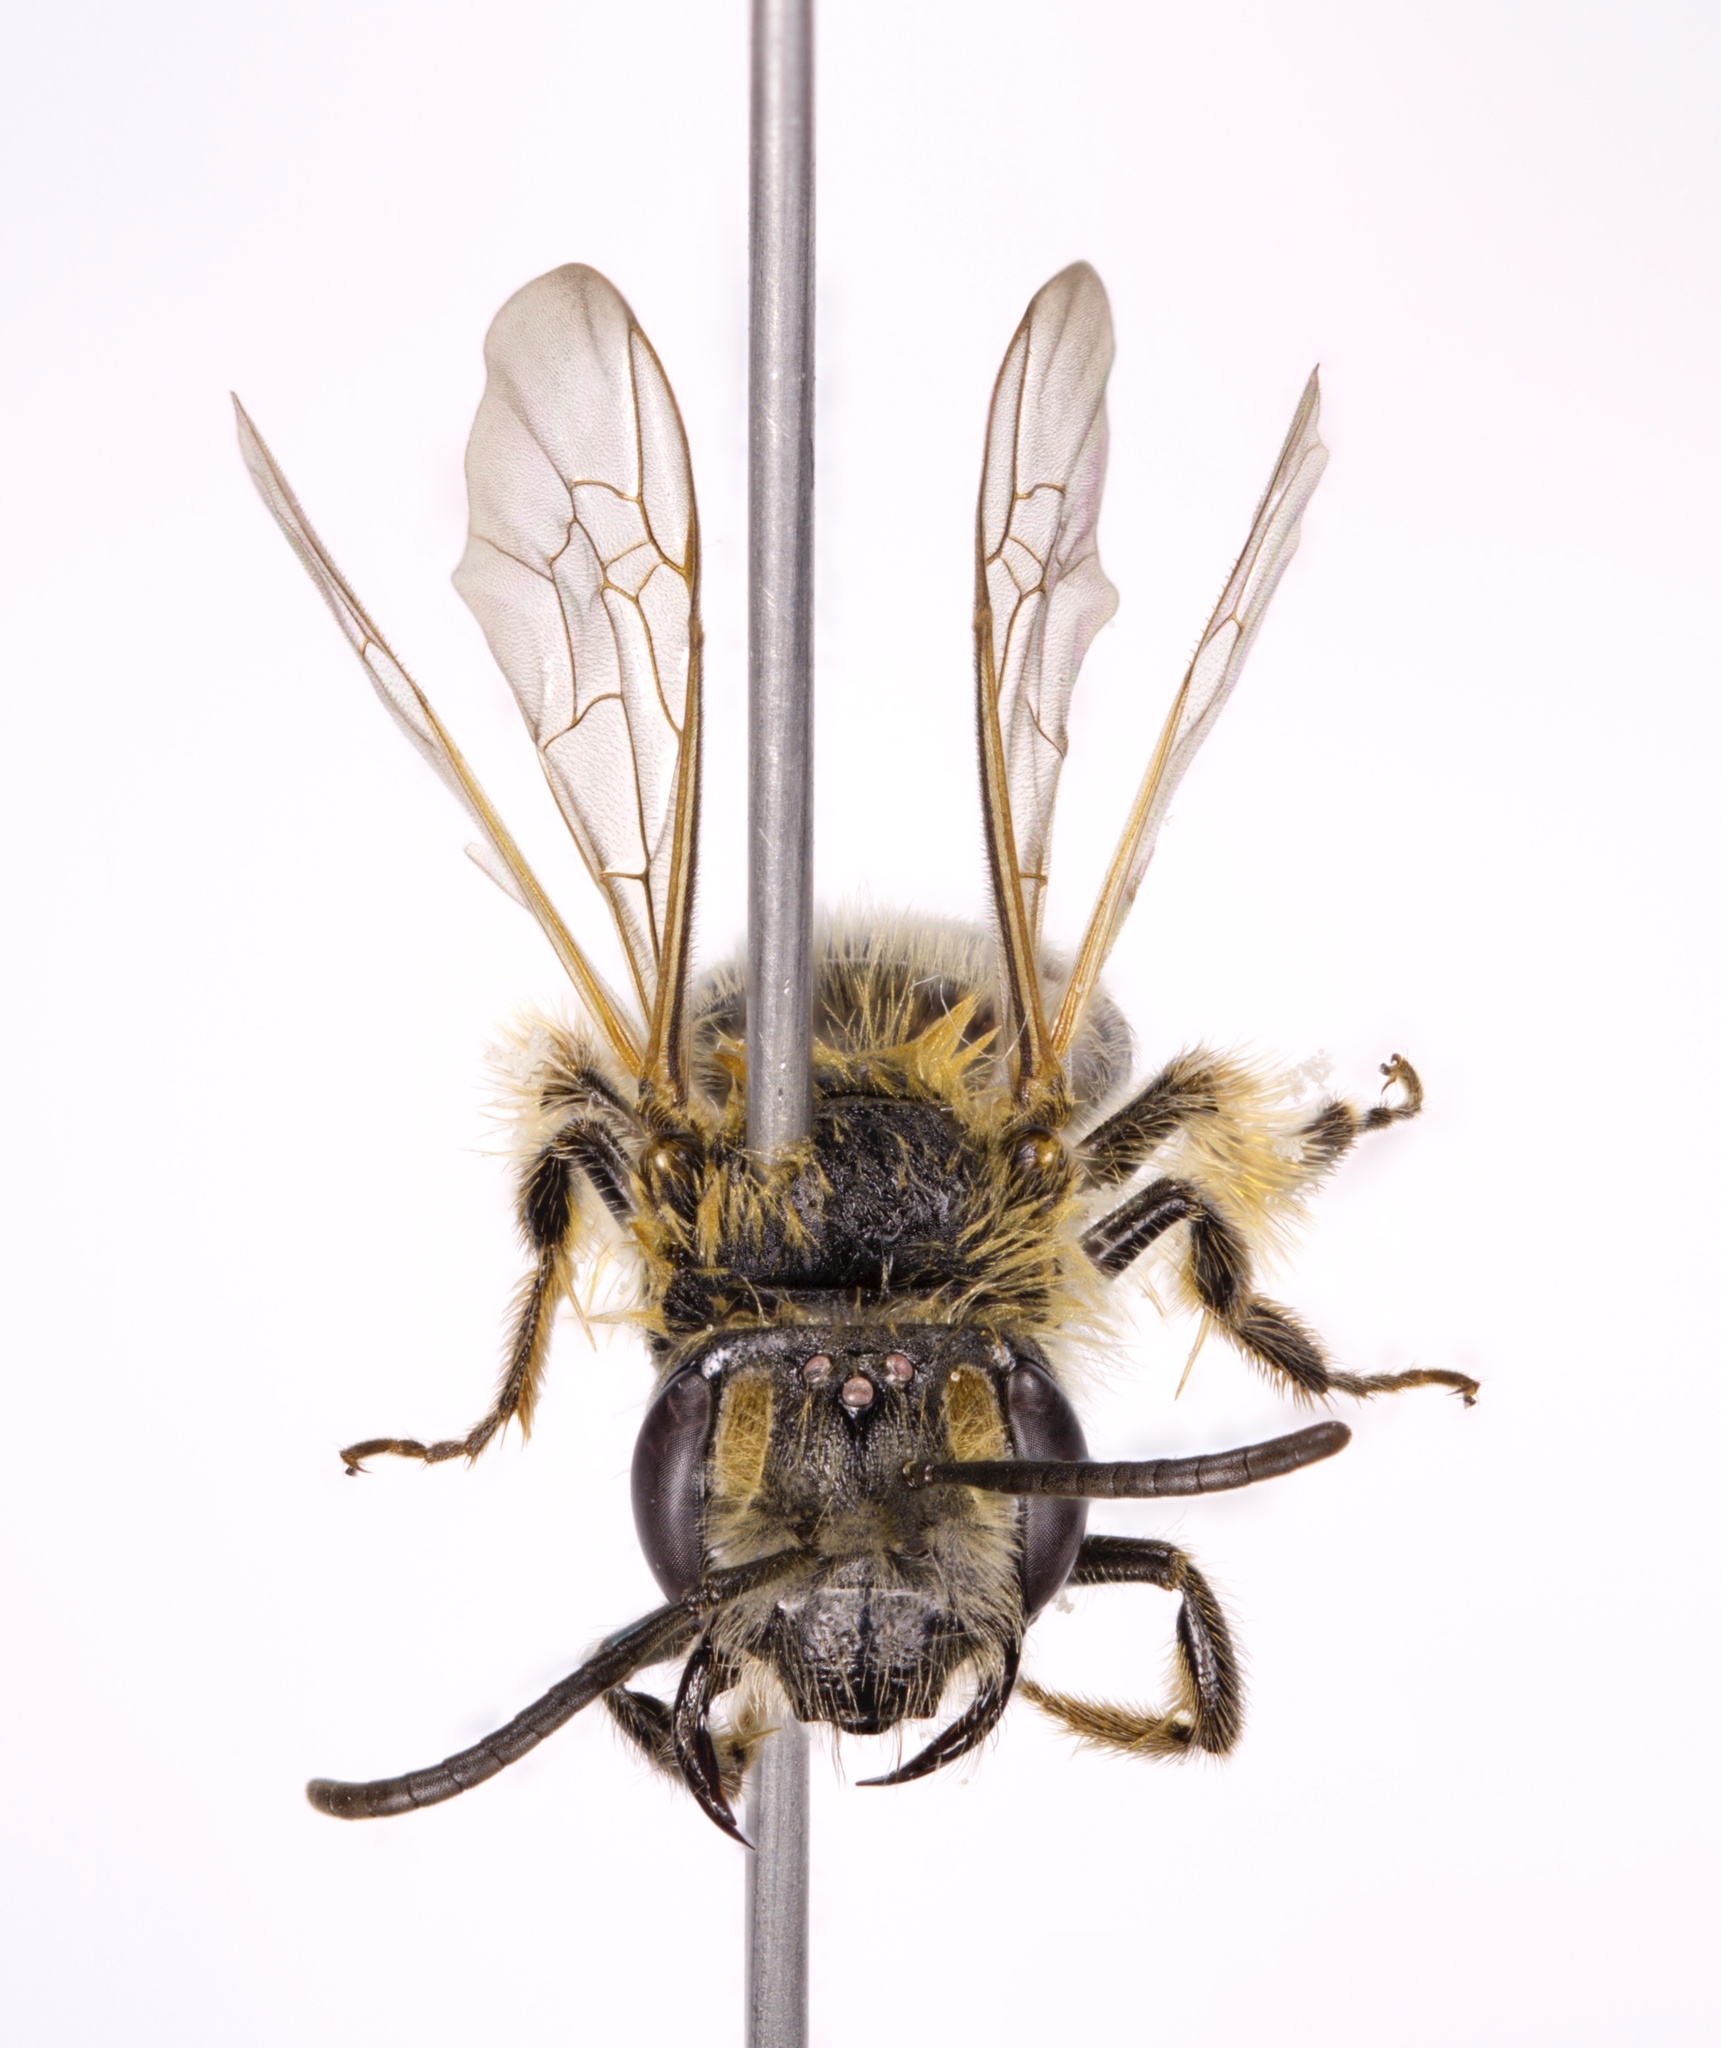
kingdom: Animalia
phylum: Arthropoda
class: Insecta
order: Hymenoptera
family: Andrenidae
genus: Andrena
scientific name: Andrena cornelli
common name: Azalea mining bee
